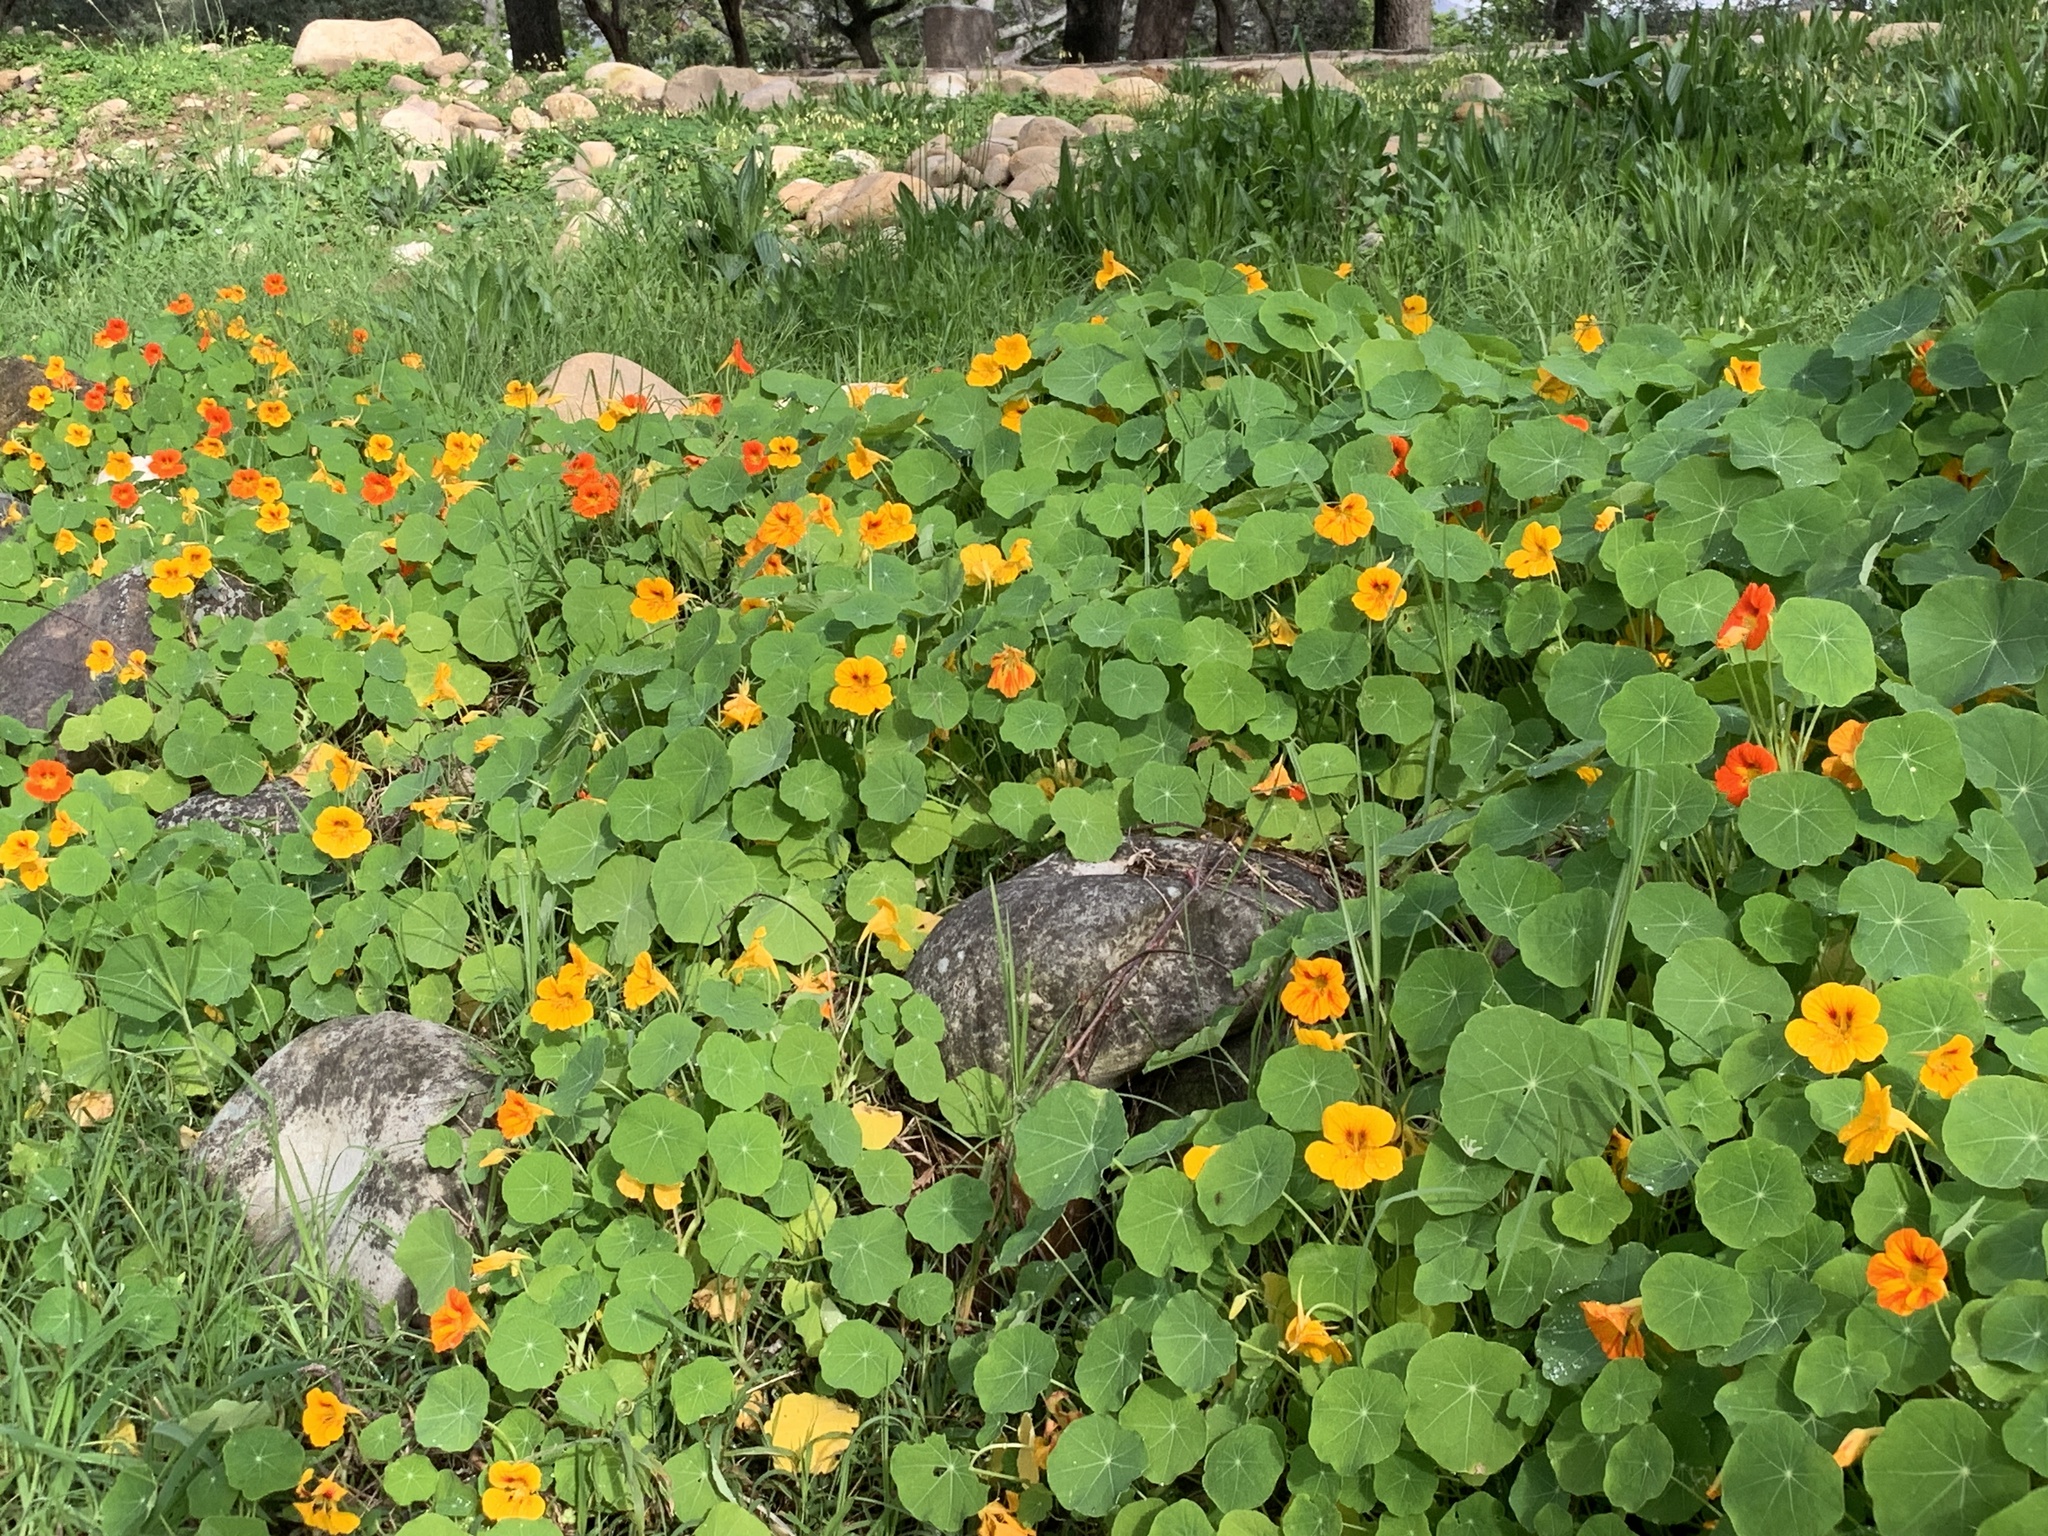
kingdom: Plantae
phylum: Tracheophyta
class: Magnoliopsida
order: Brassicales
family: Tropaeolaceae
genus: Tropaeolum
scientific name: Tropaeolum majus
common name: Nasturtium
